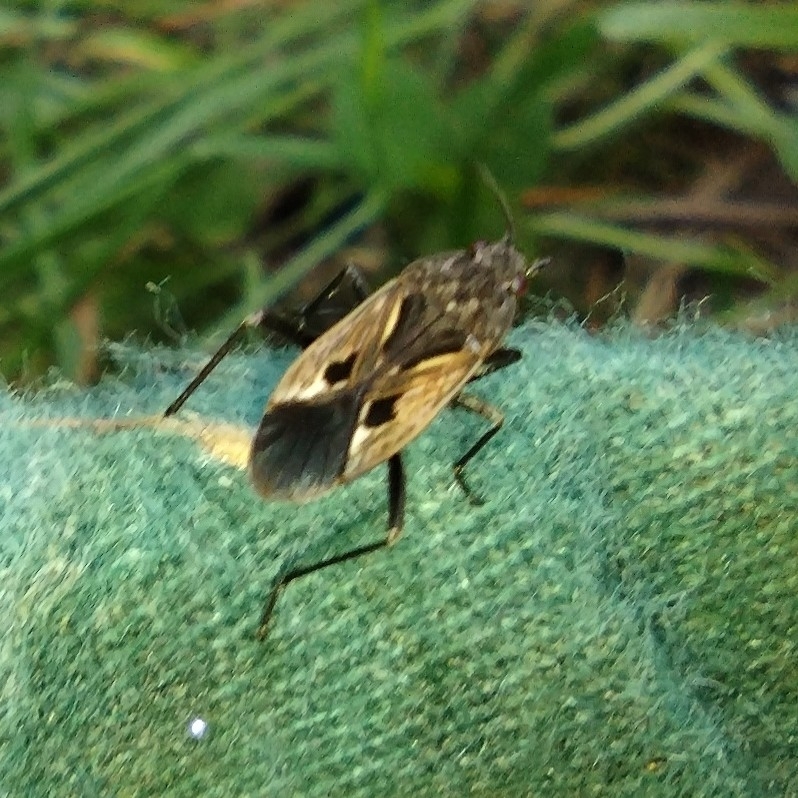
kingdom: Animalia
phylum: Arthropoda
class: Insecta
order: Hemiptera
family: Rhyparochromidae
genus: Rhyparochromus
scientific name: Rhyparochromus pini
